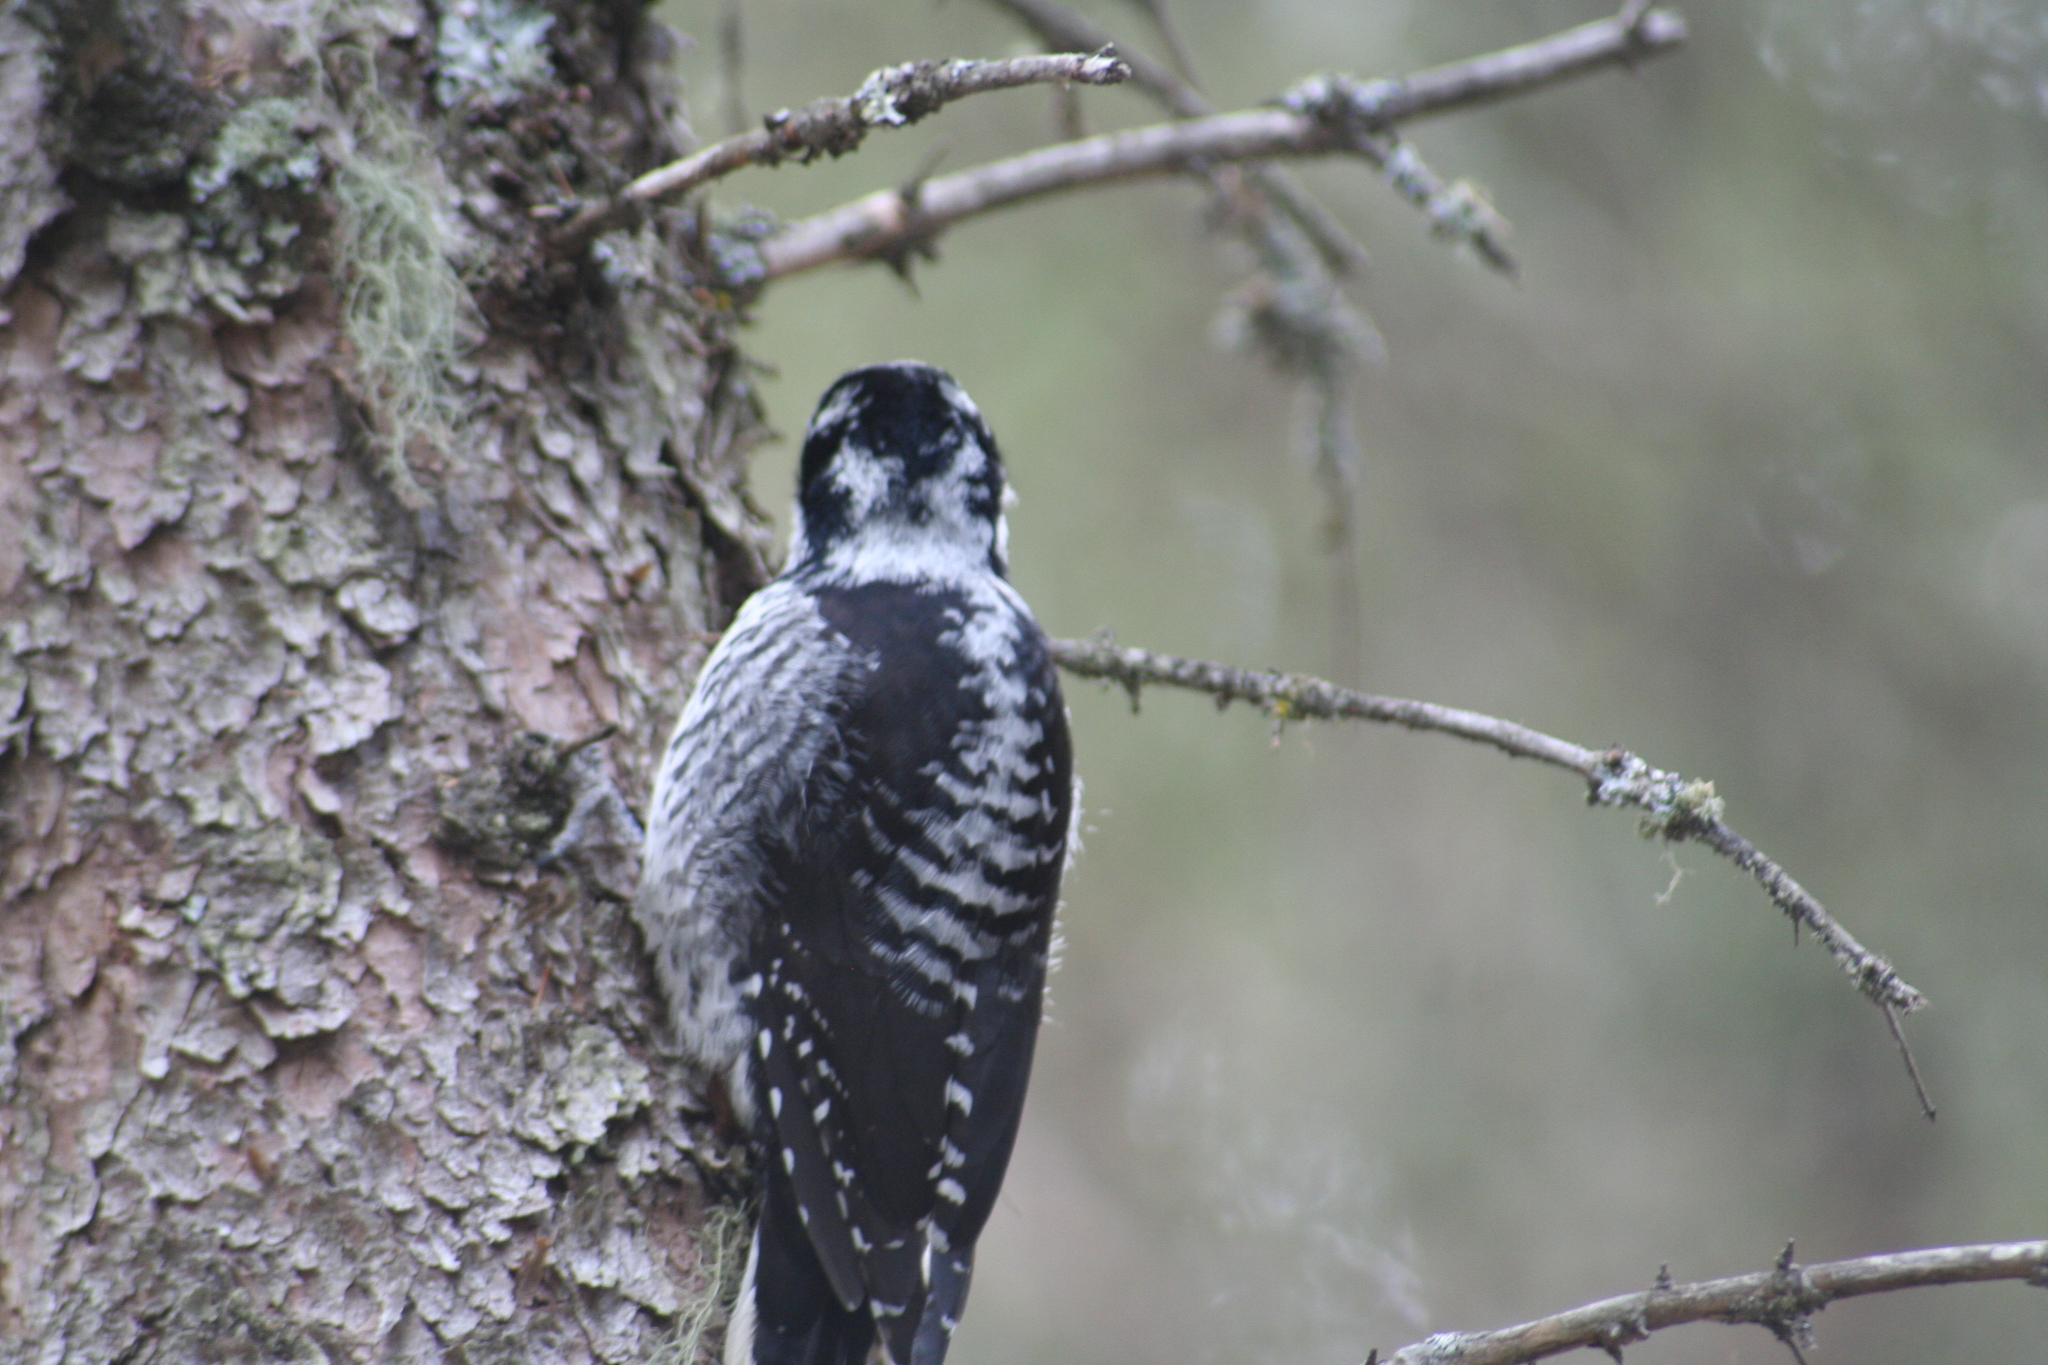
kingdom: Animalia
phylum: Chordata
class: Aves
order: Piciformes
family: Picidae
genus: Picoides
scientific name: Picoides dorsalis
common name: American three-toed woodpecker
